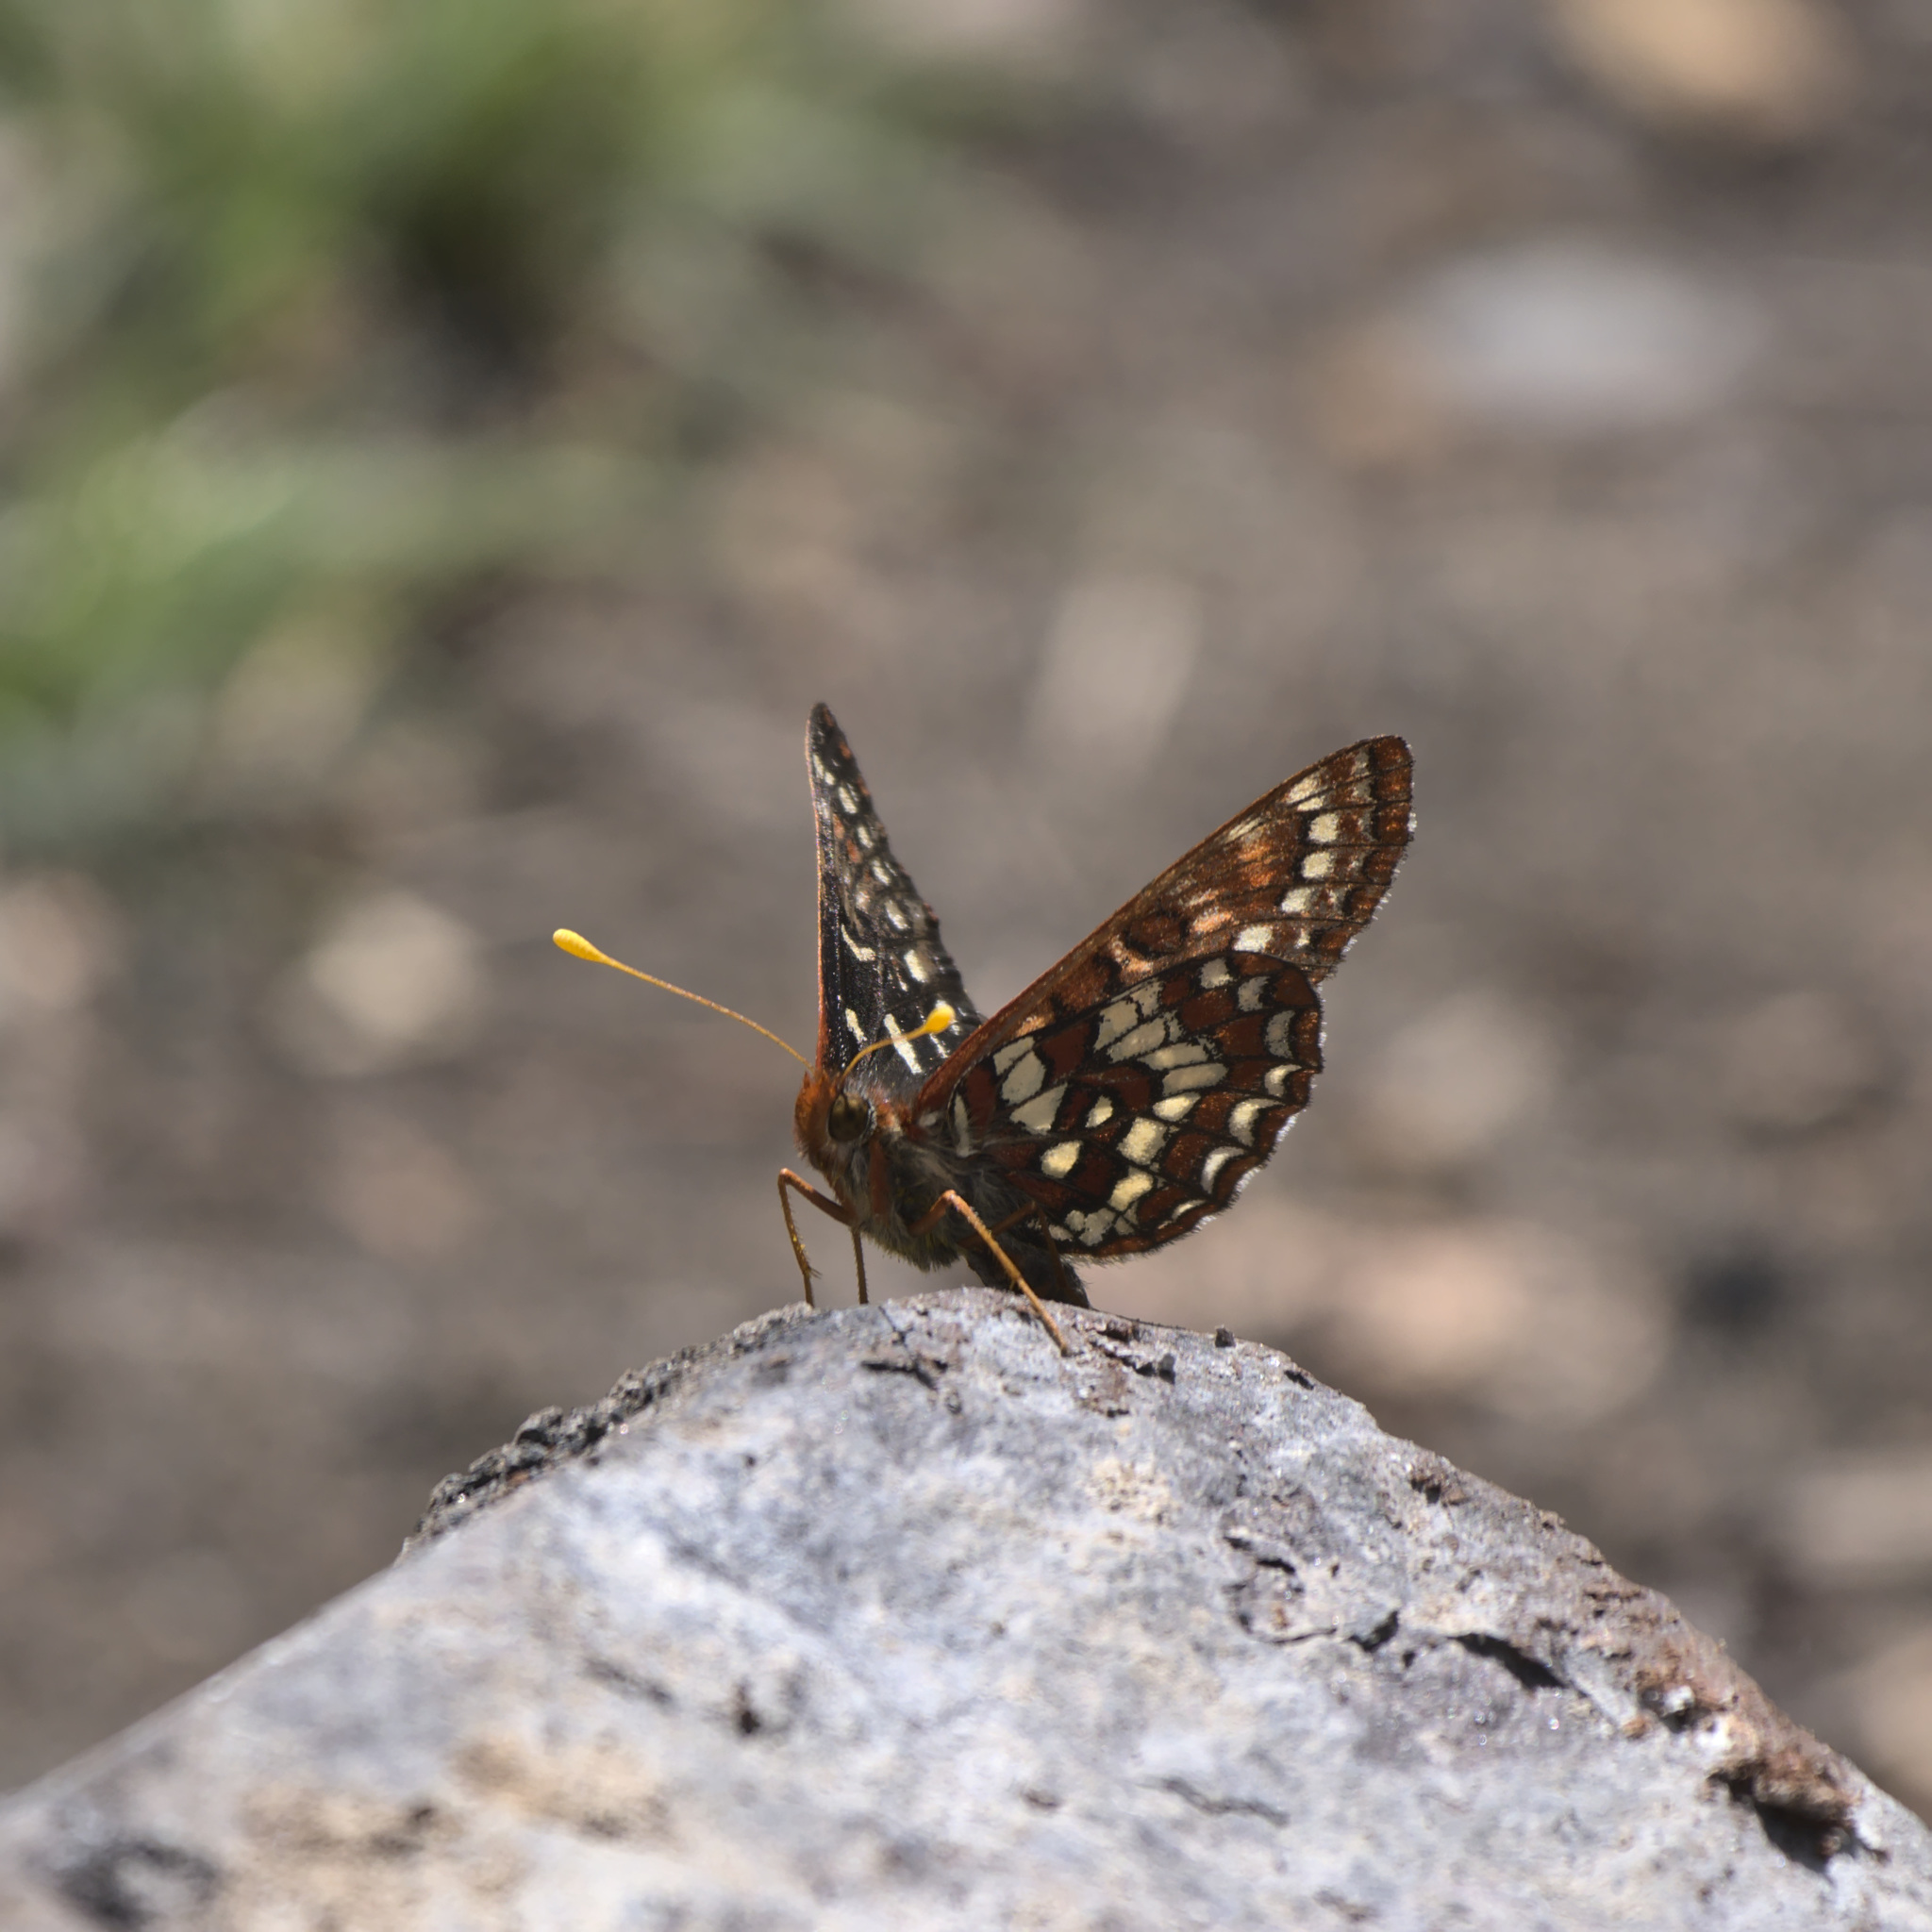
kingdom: Animalia
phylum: Arthropoda
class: Insecta
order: Lepidoptera
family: Nymphalidae
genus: Occidryas
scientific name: Occidryas colon
